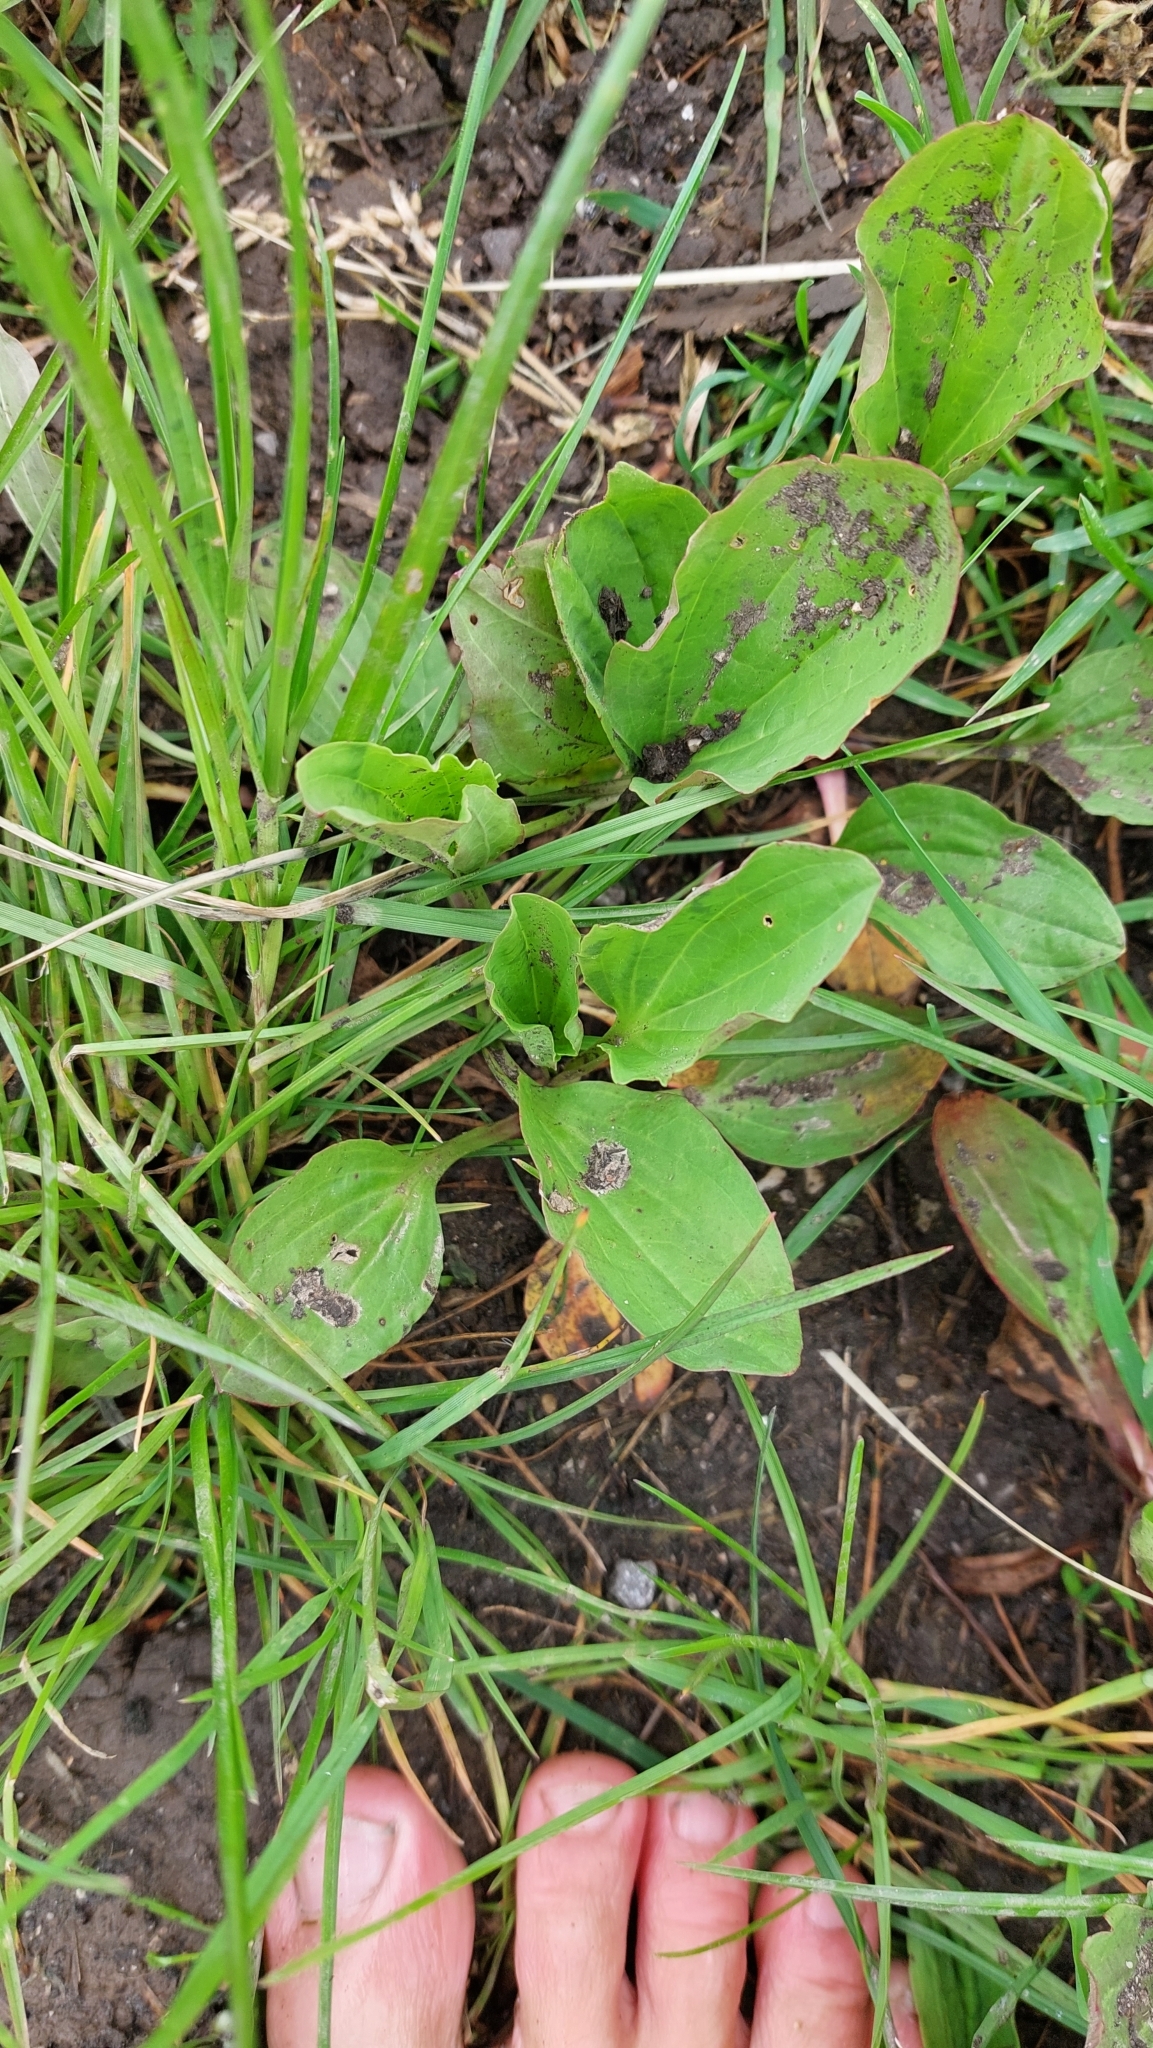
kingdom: Plantae
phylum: Tracheophyta
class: Magnoliopsida
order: Lamiales
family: Plantaginaceae
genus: Plantago
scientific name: Plantago major
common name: Common plantain
